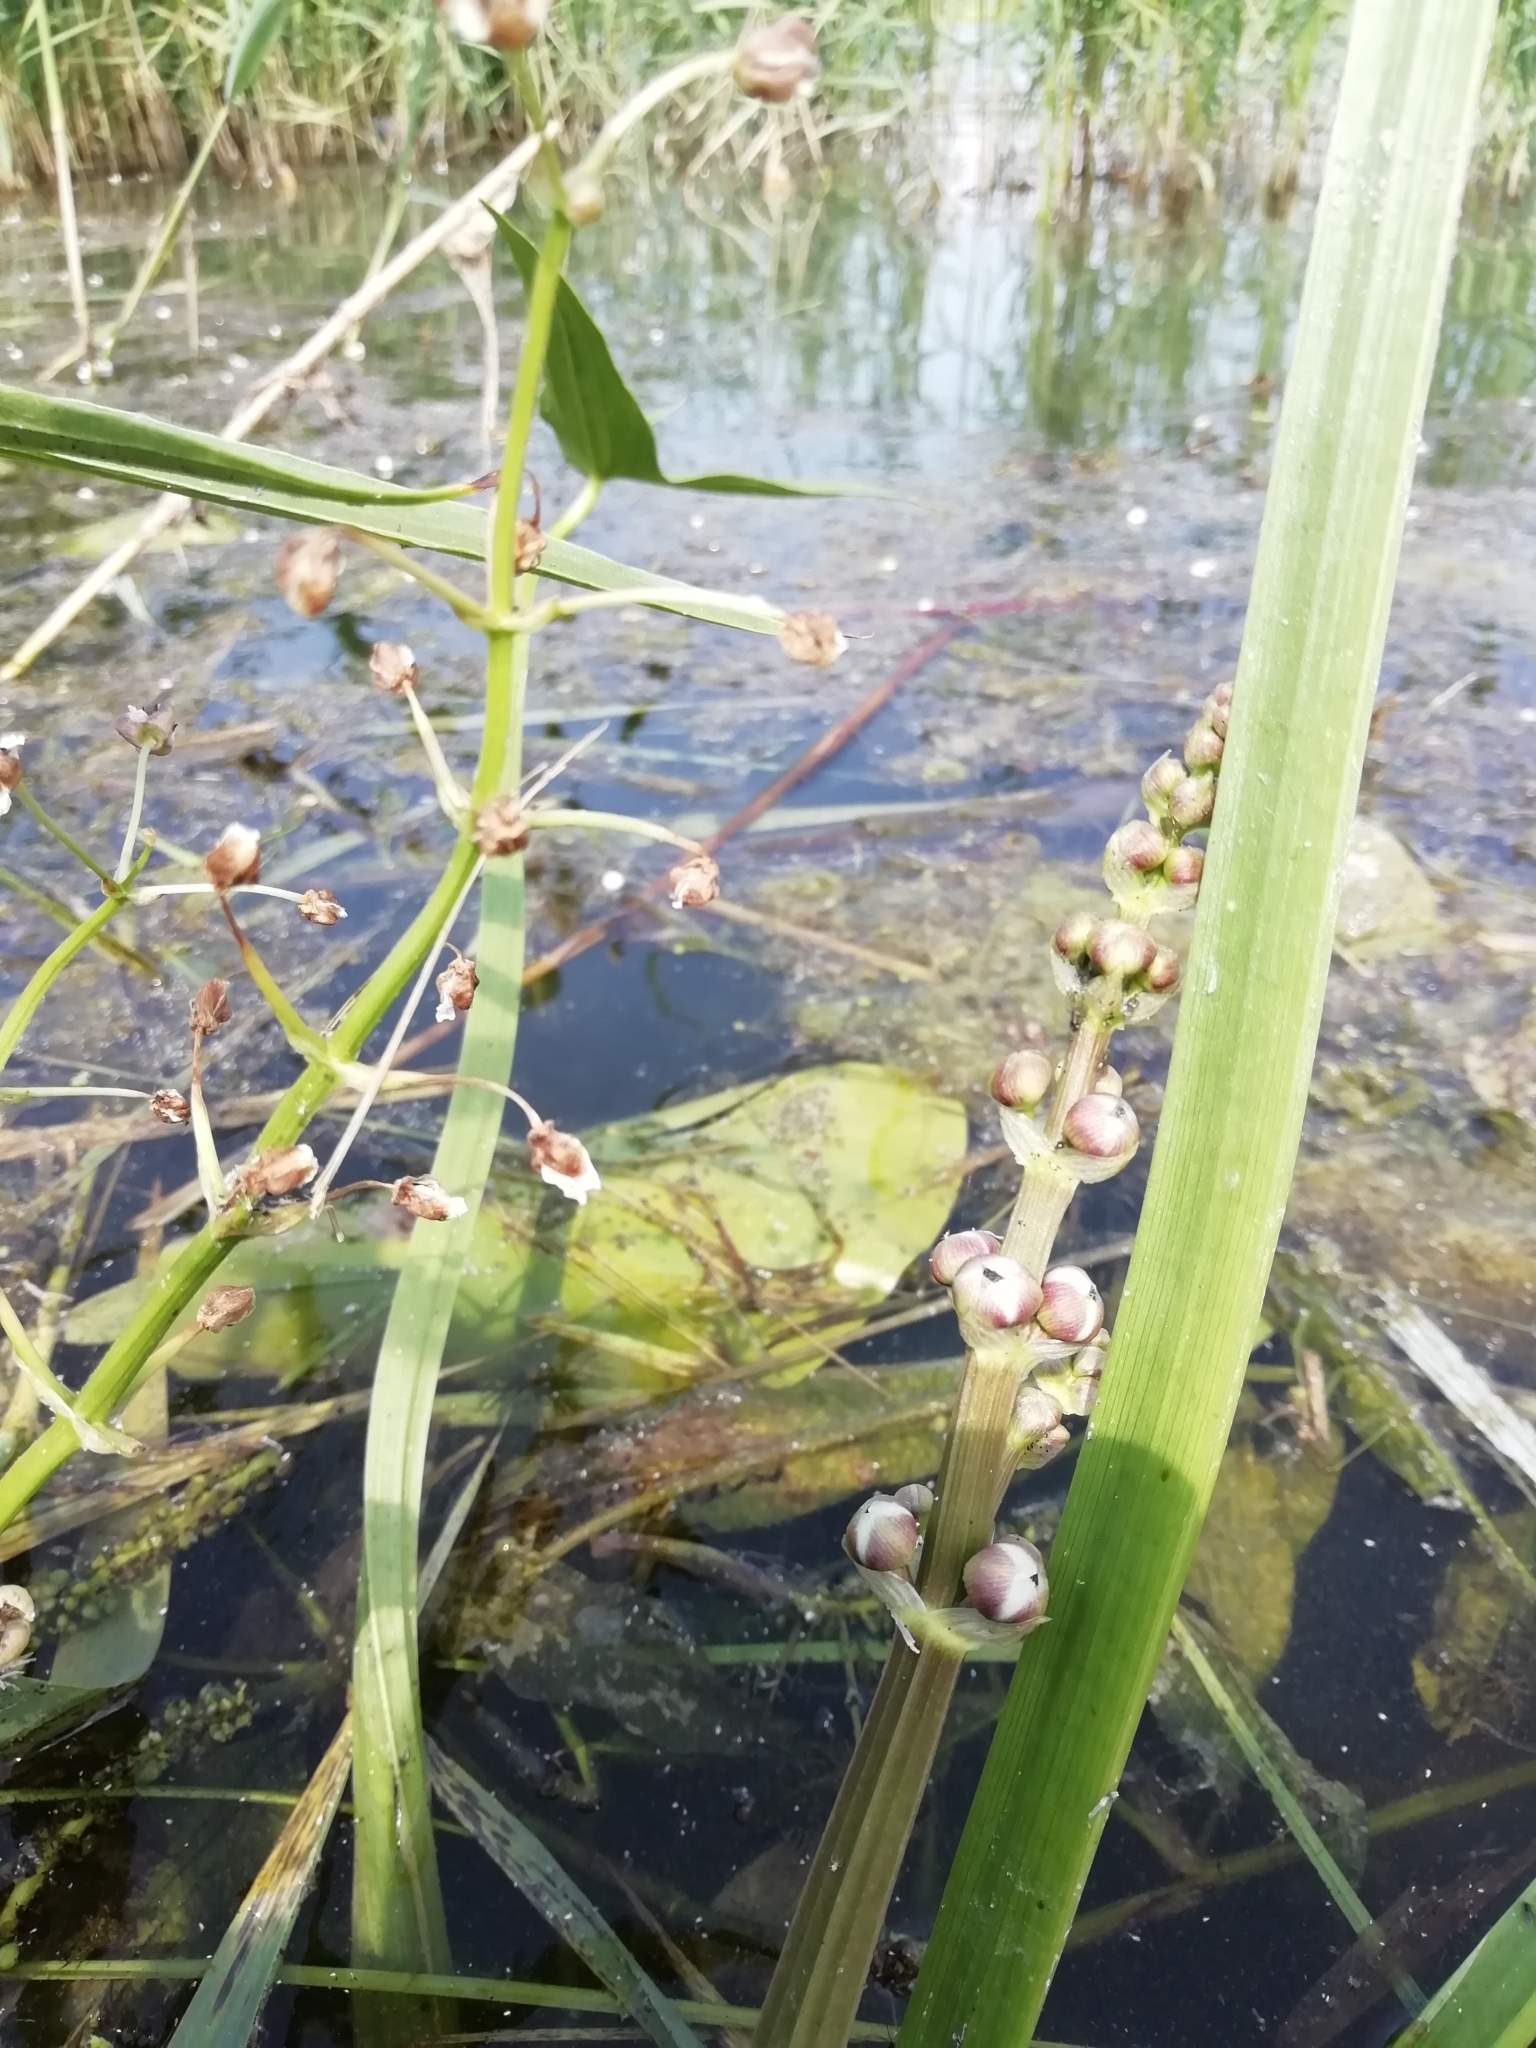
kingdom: Plantae
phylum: Tracheophyta
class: Liliopsida
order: Alismatales
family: Alismataceae
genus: Sagittaria
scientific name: Sagittaria sagittifolia
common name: Arrowhead
